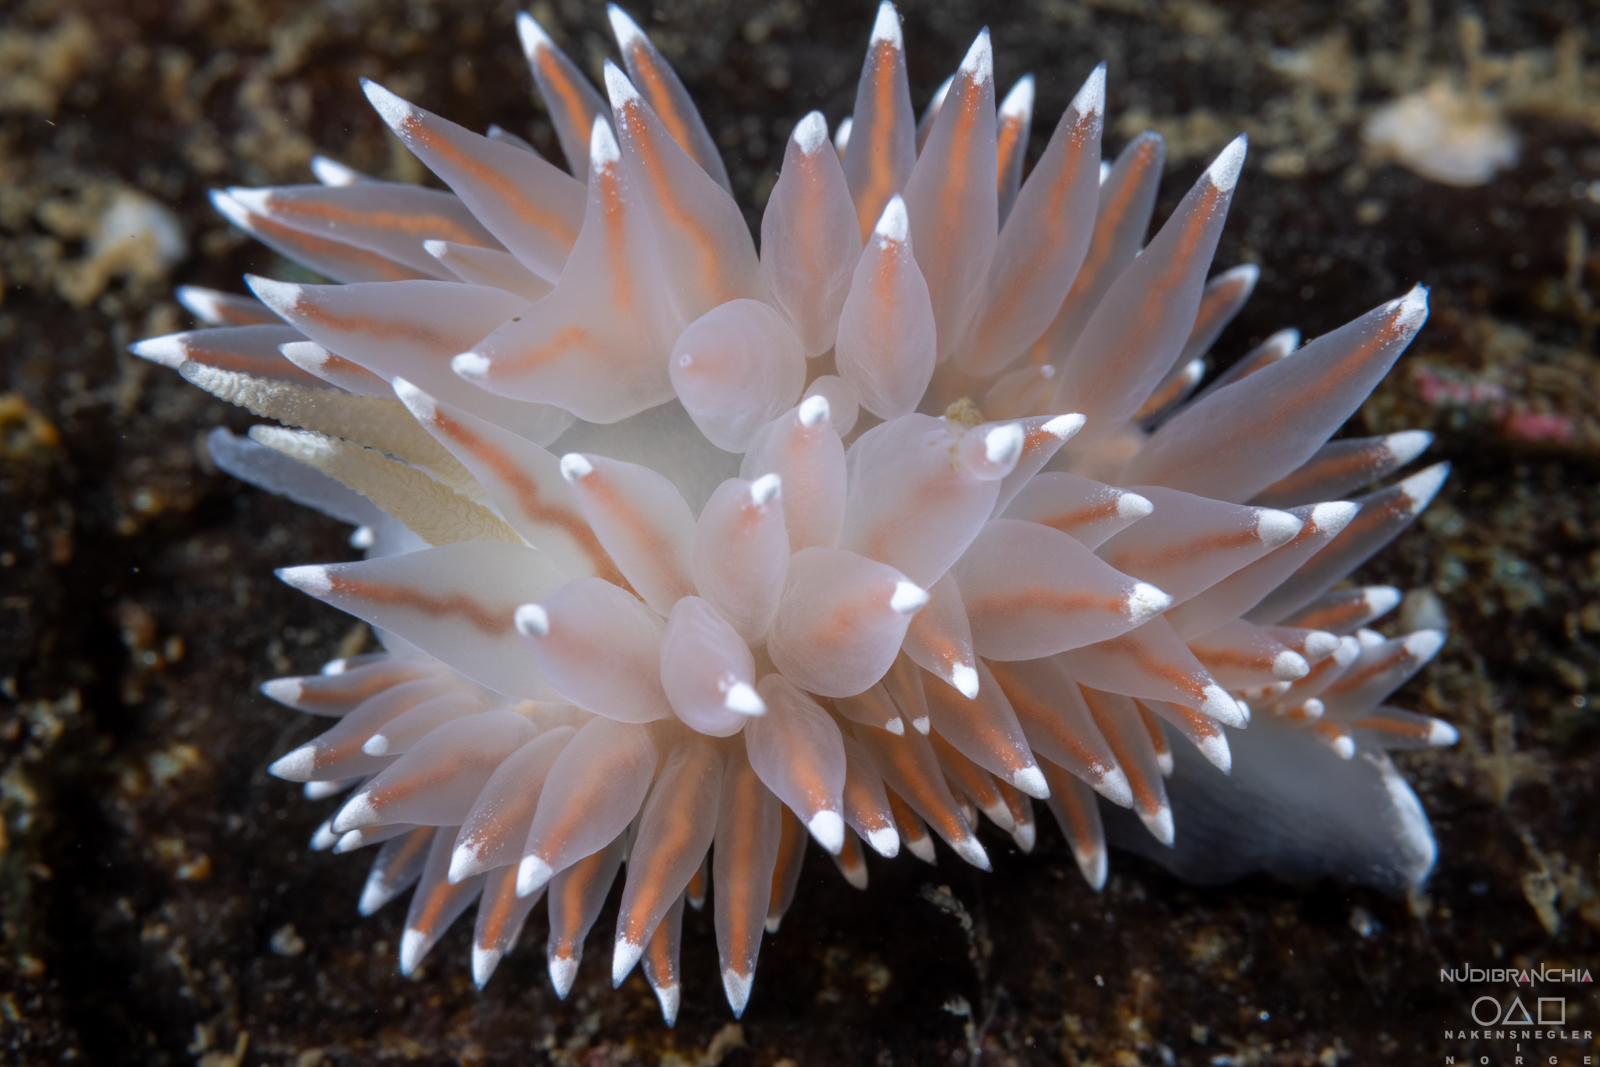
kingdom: Animalia
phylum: Mollusca
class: Gastropoda
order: Nudibranchia
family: Coryphellidae
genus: Coryphella
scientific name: Coryphella nobilis
